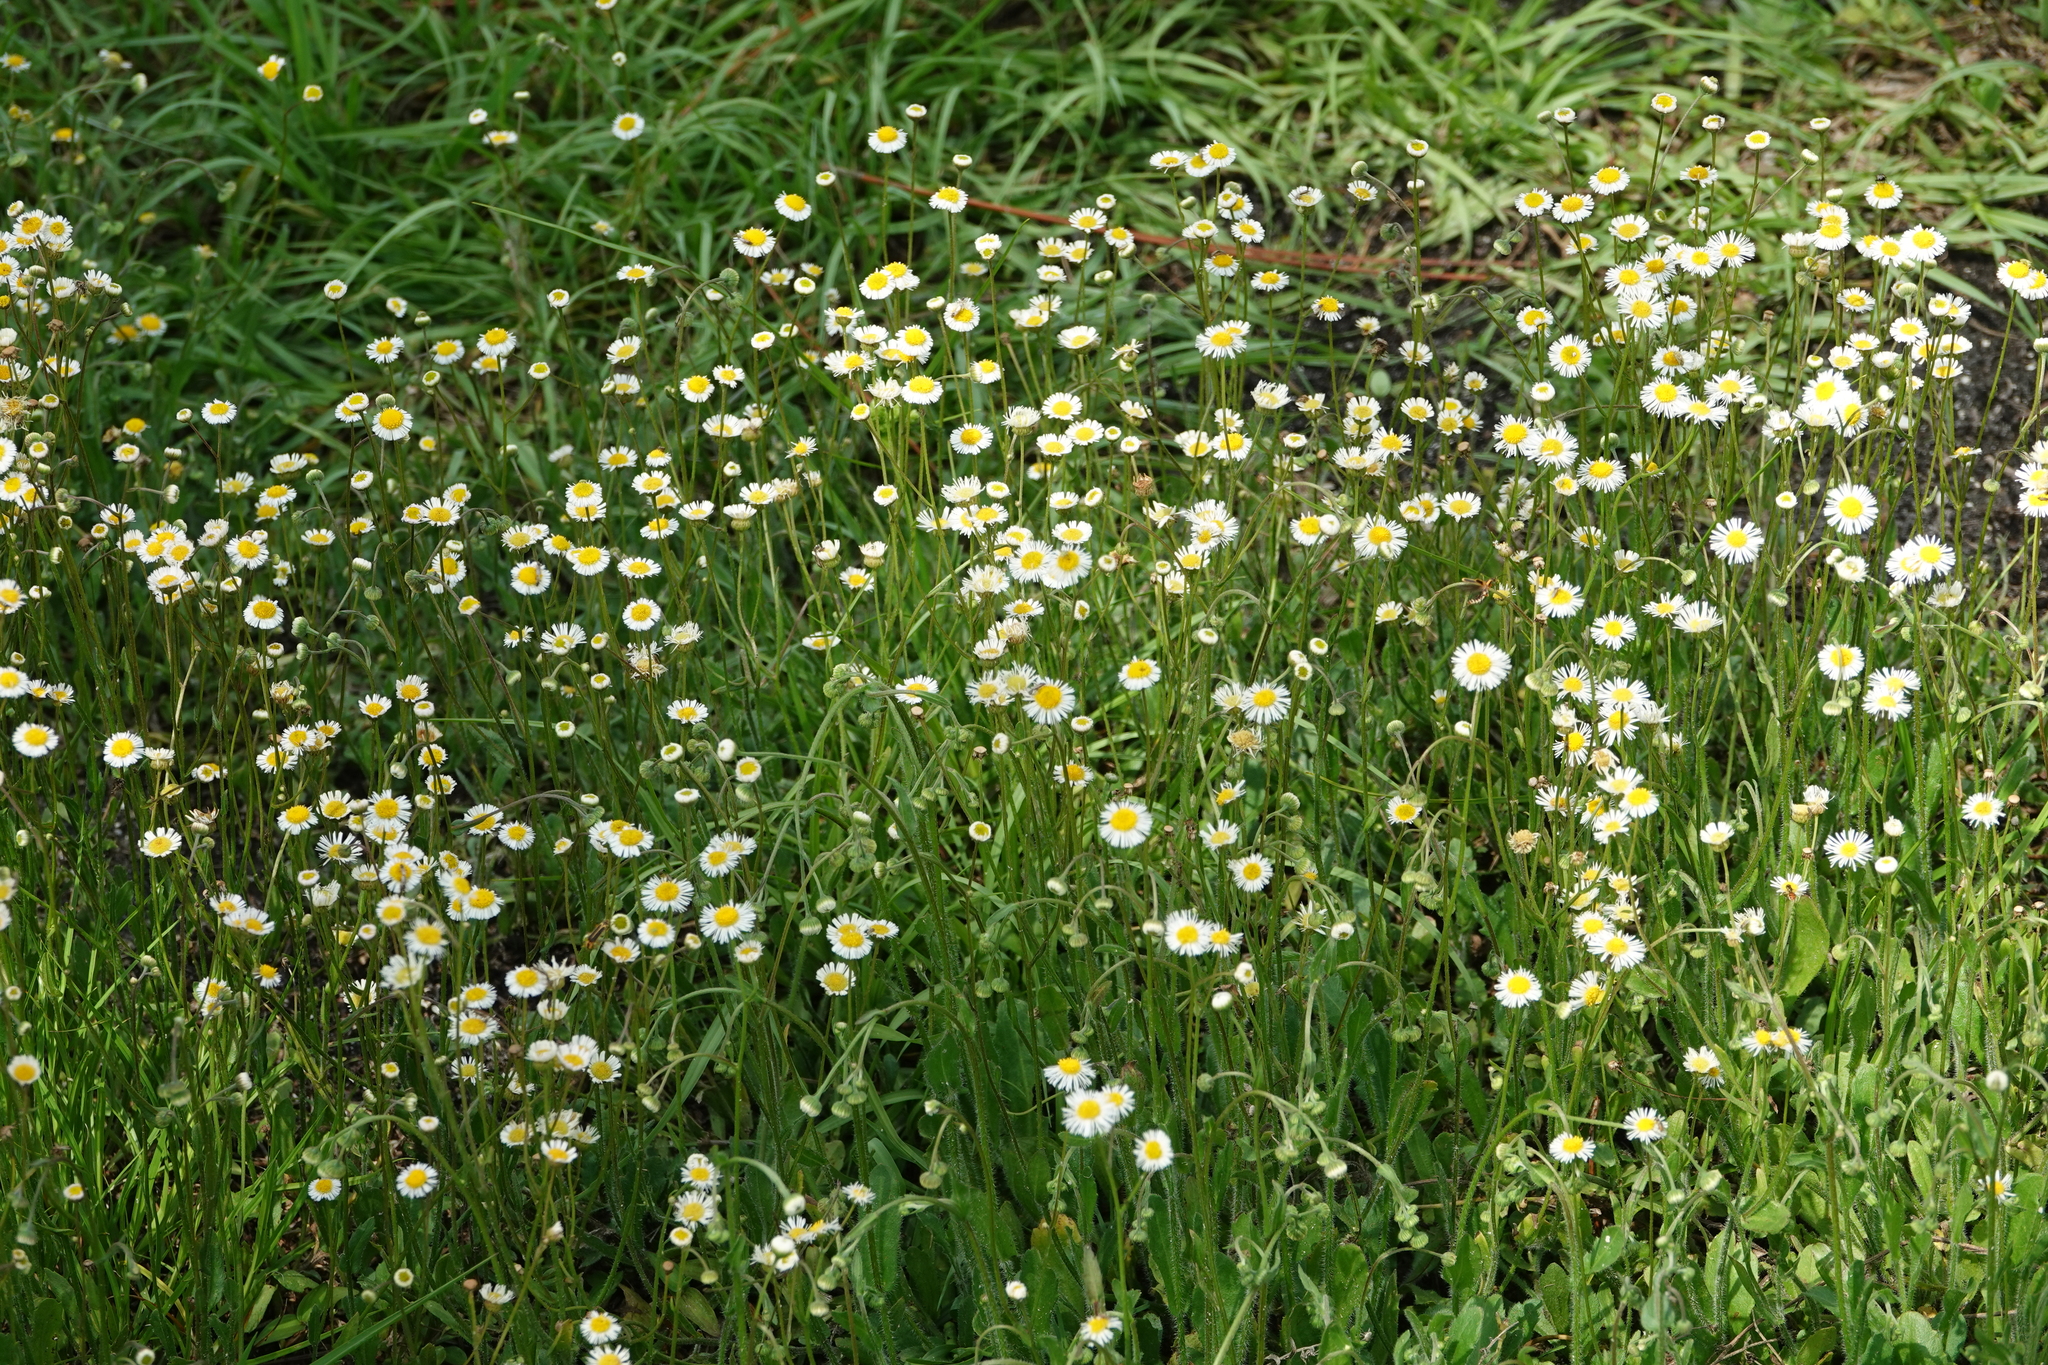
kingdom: Plantae
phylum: Tracheophyta
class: Magnoliopsida
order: Asterales
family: Asteraceae
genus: Erigeron
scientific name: Erigeron quercifolius
